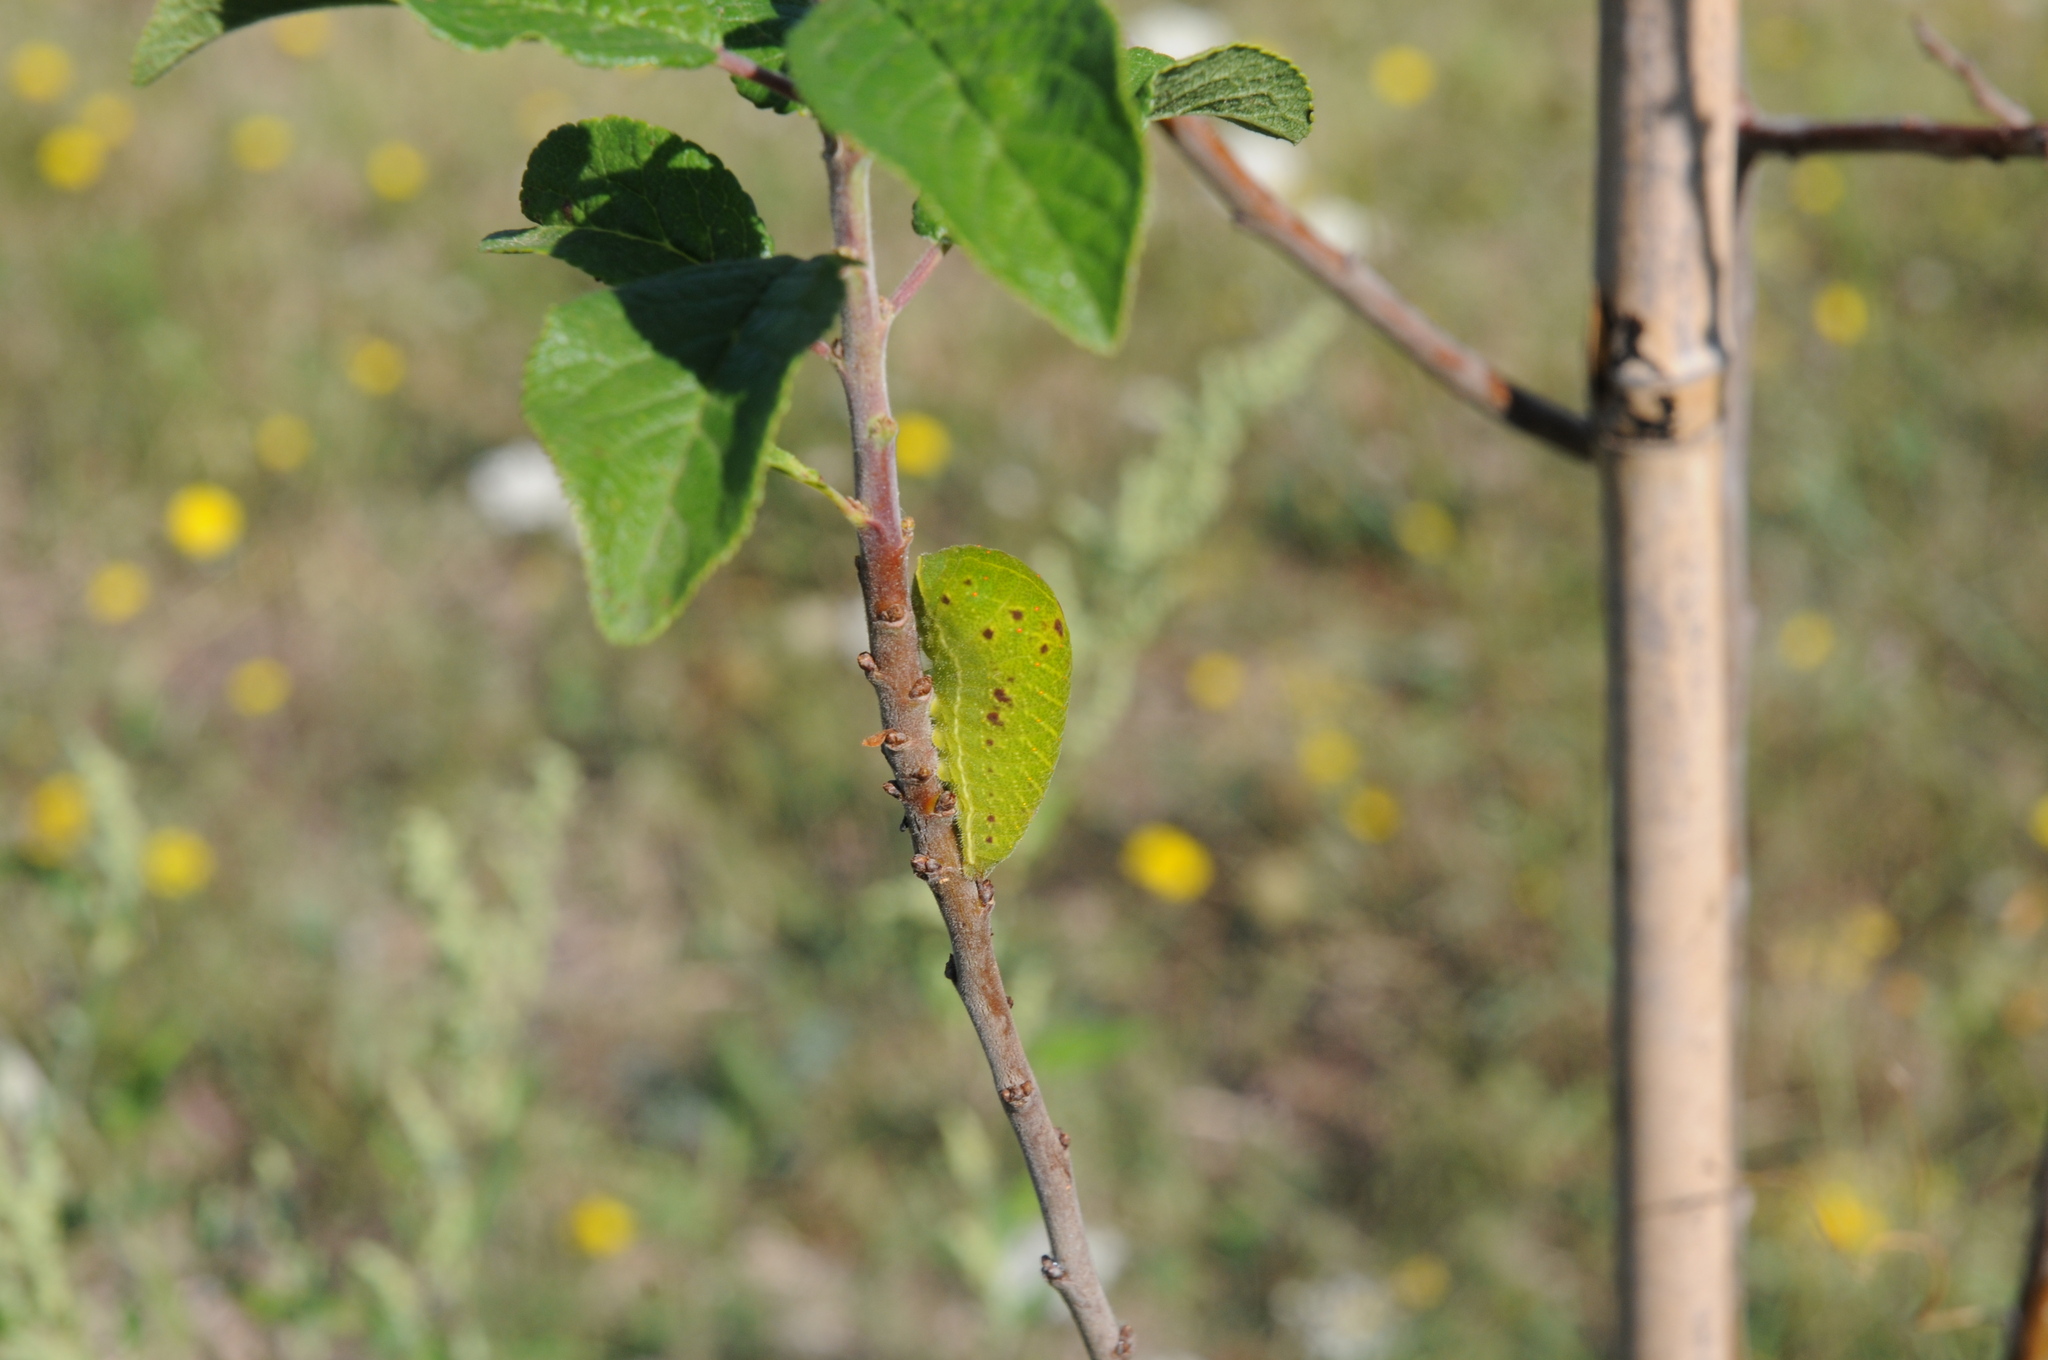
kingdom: Animalia
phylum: Arthropoda
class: Insecta
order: Lepidoptera
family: Papilionidae
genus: Iphiclides
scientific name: Iphiclides podalirius
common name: Scarce swallowtail
